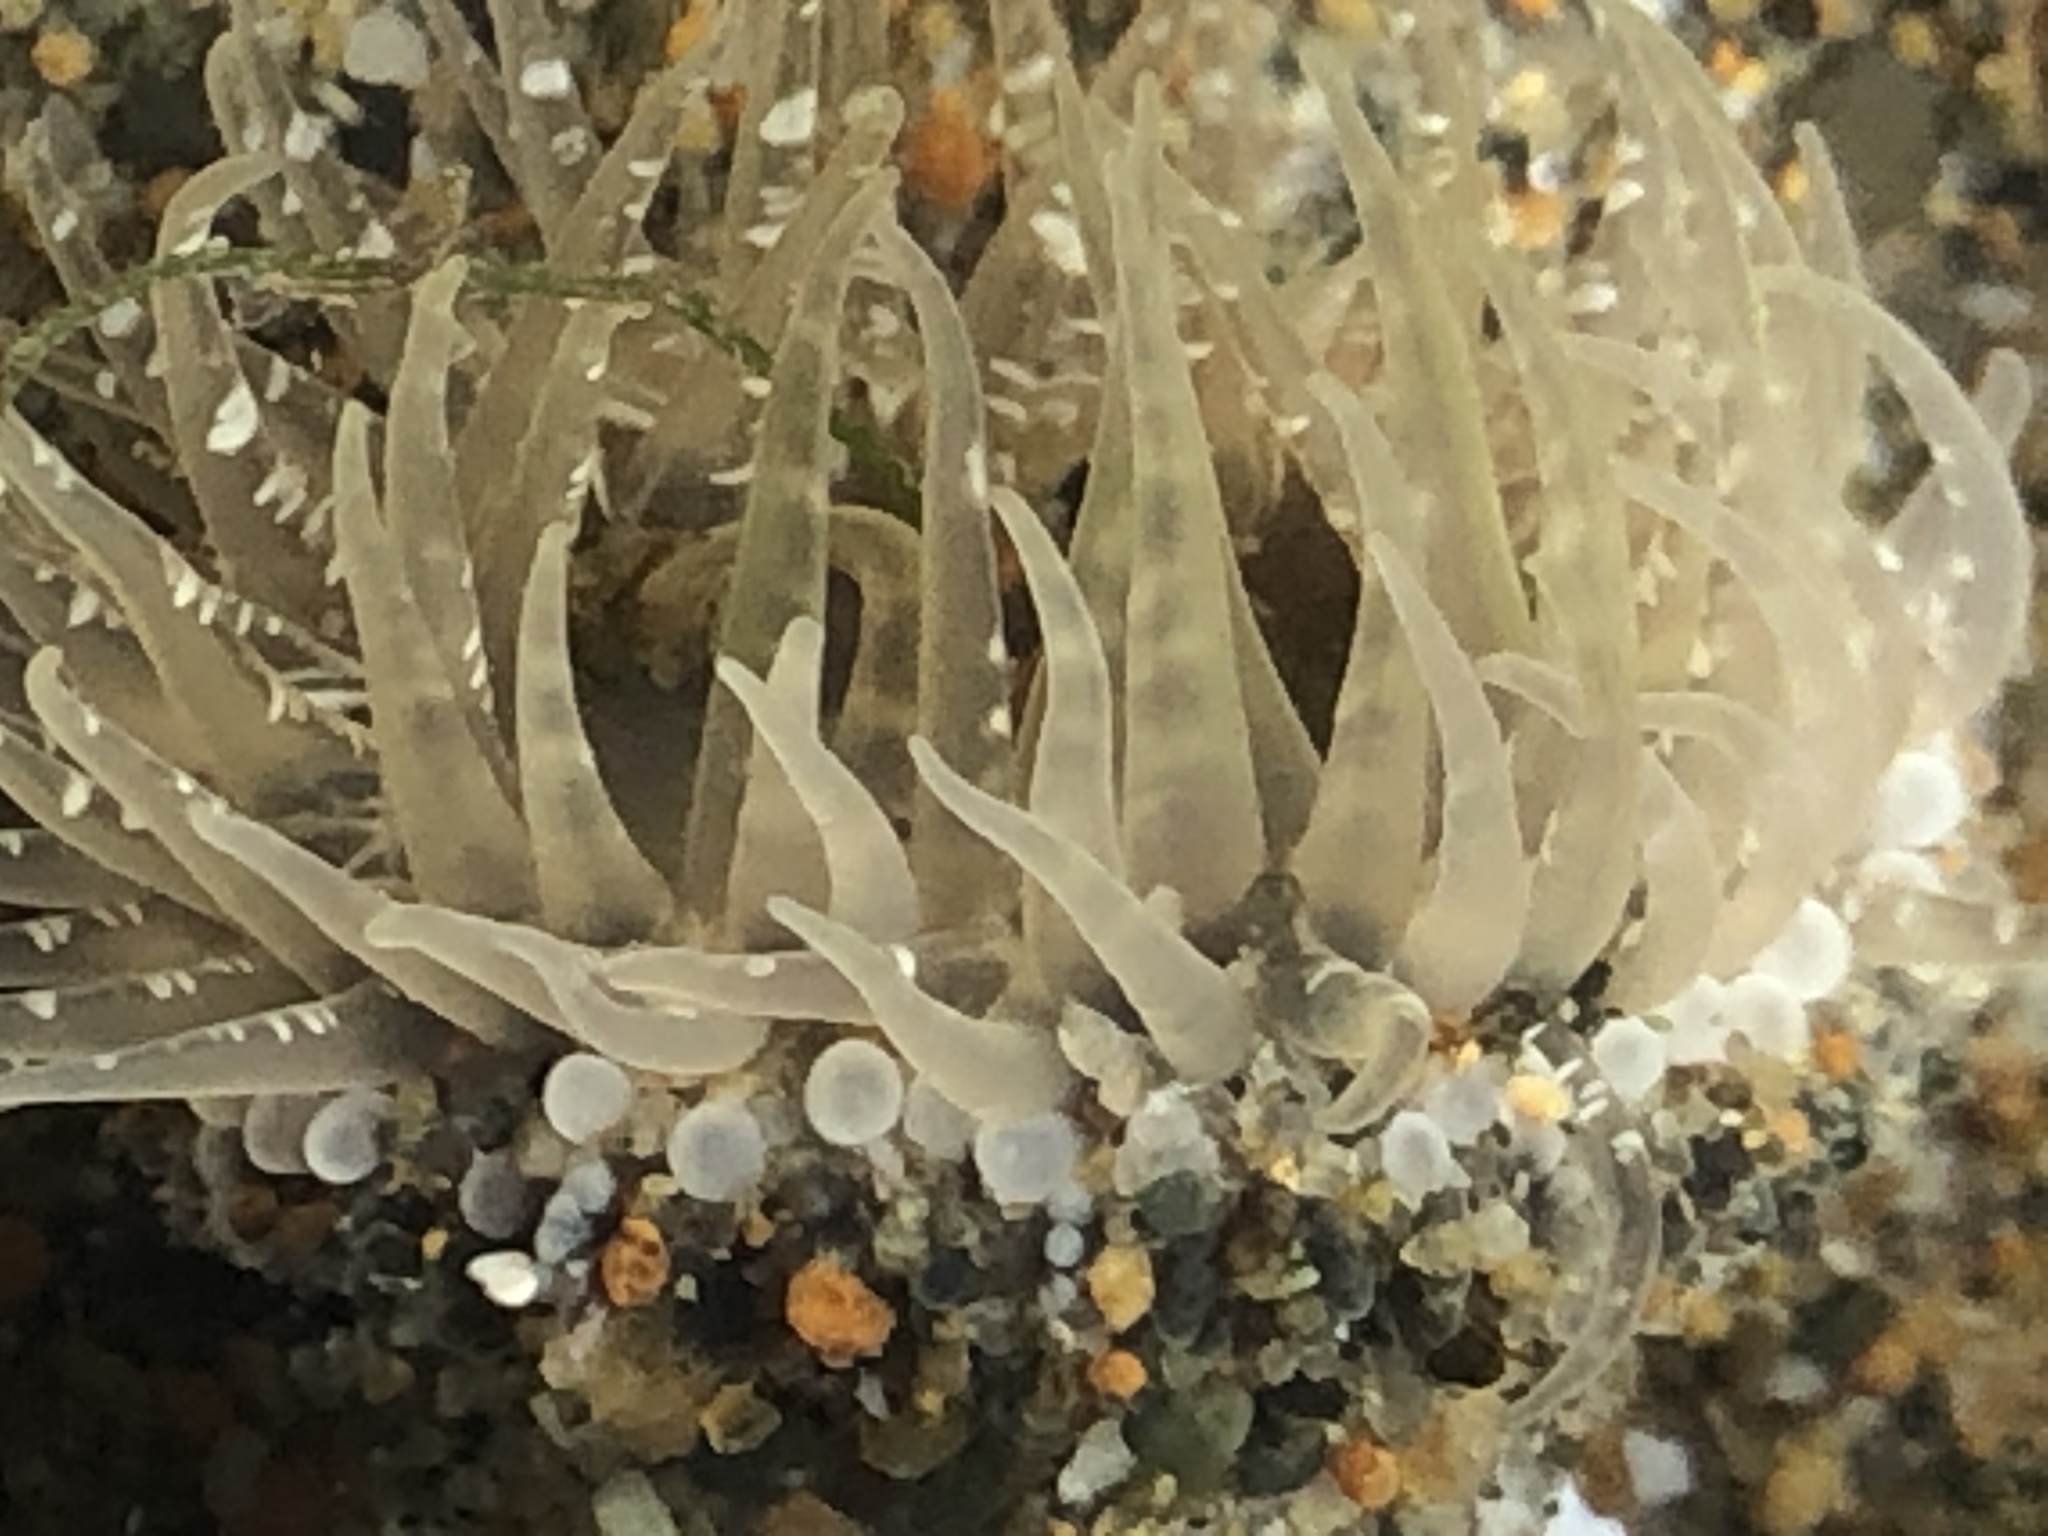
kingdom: Animalia
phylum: Cnidaria
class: Anthozoa
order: Actiniaria
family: Actiniidae
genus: Anthopleura
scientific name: Anthopleura artemisia
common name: Buried sea anemone
